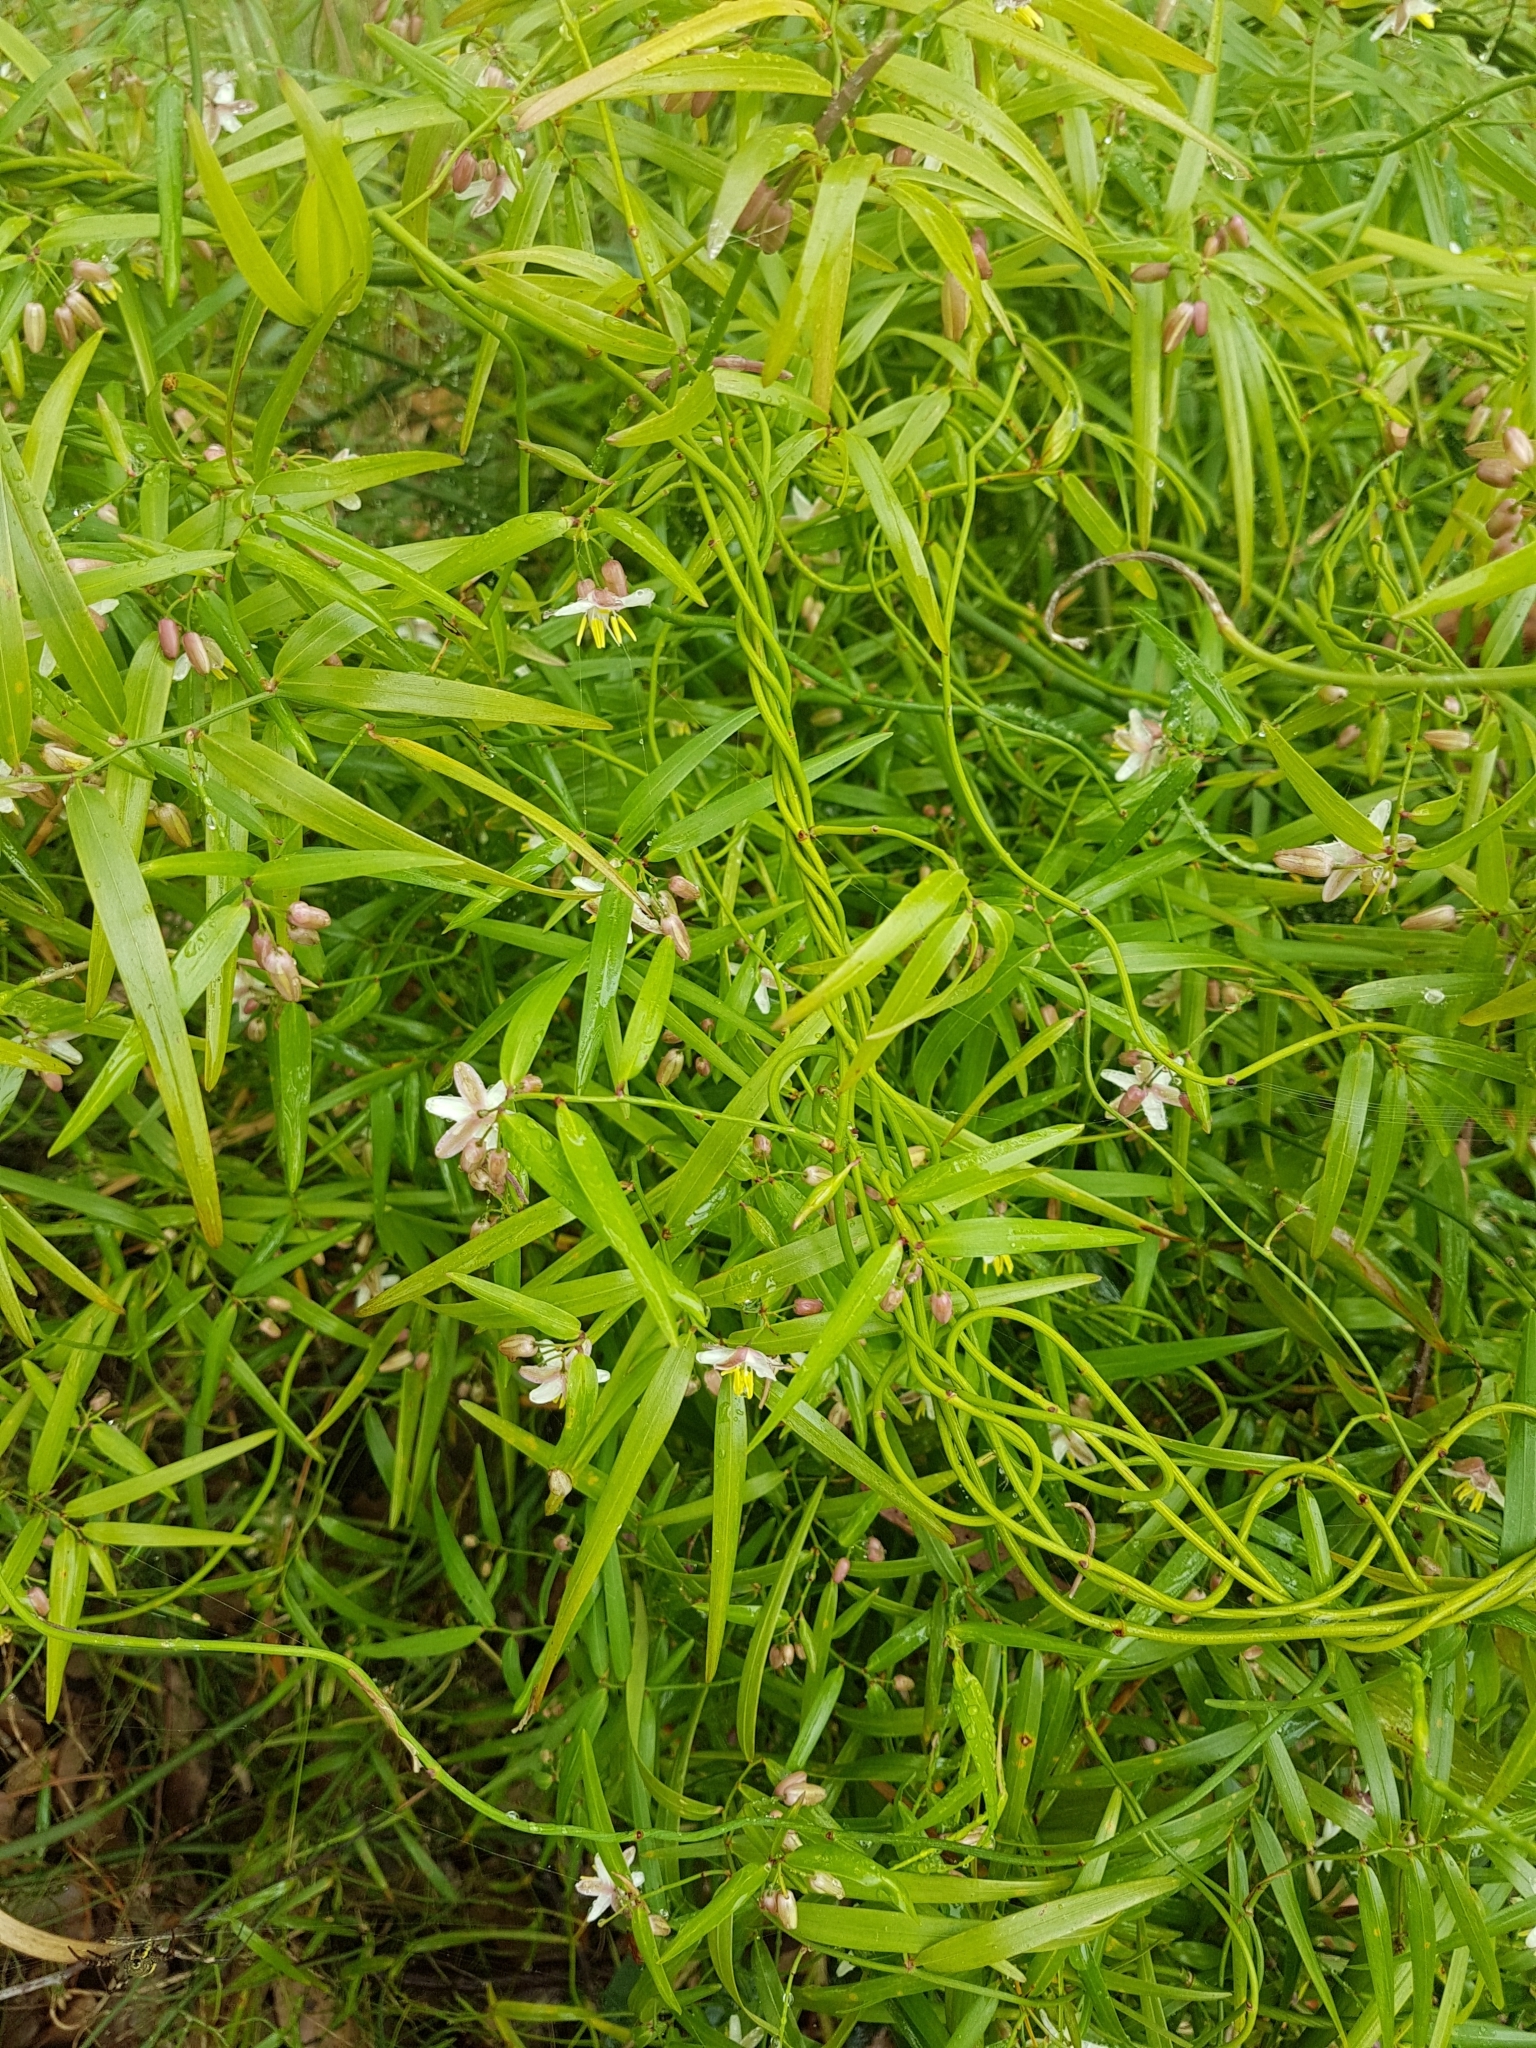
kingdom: Plantae
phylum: Tracheophyta
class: Liliopsida
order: Asparagales
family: Asphodelaceae
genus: Geitonoplesium
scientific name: Geitonoplesium cymosum
